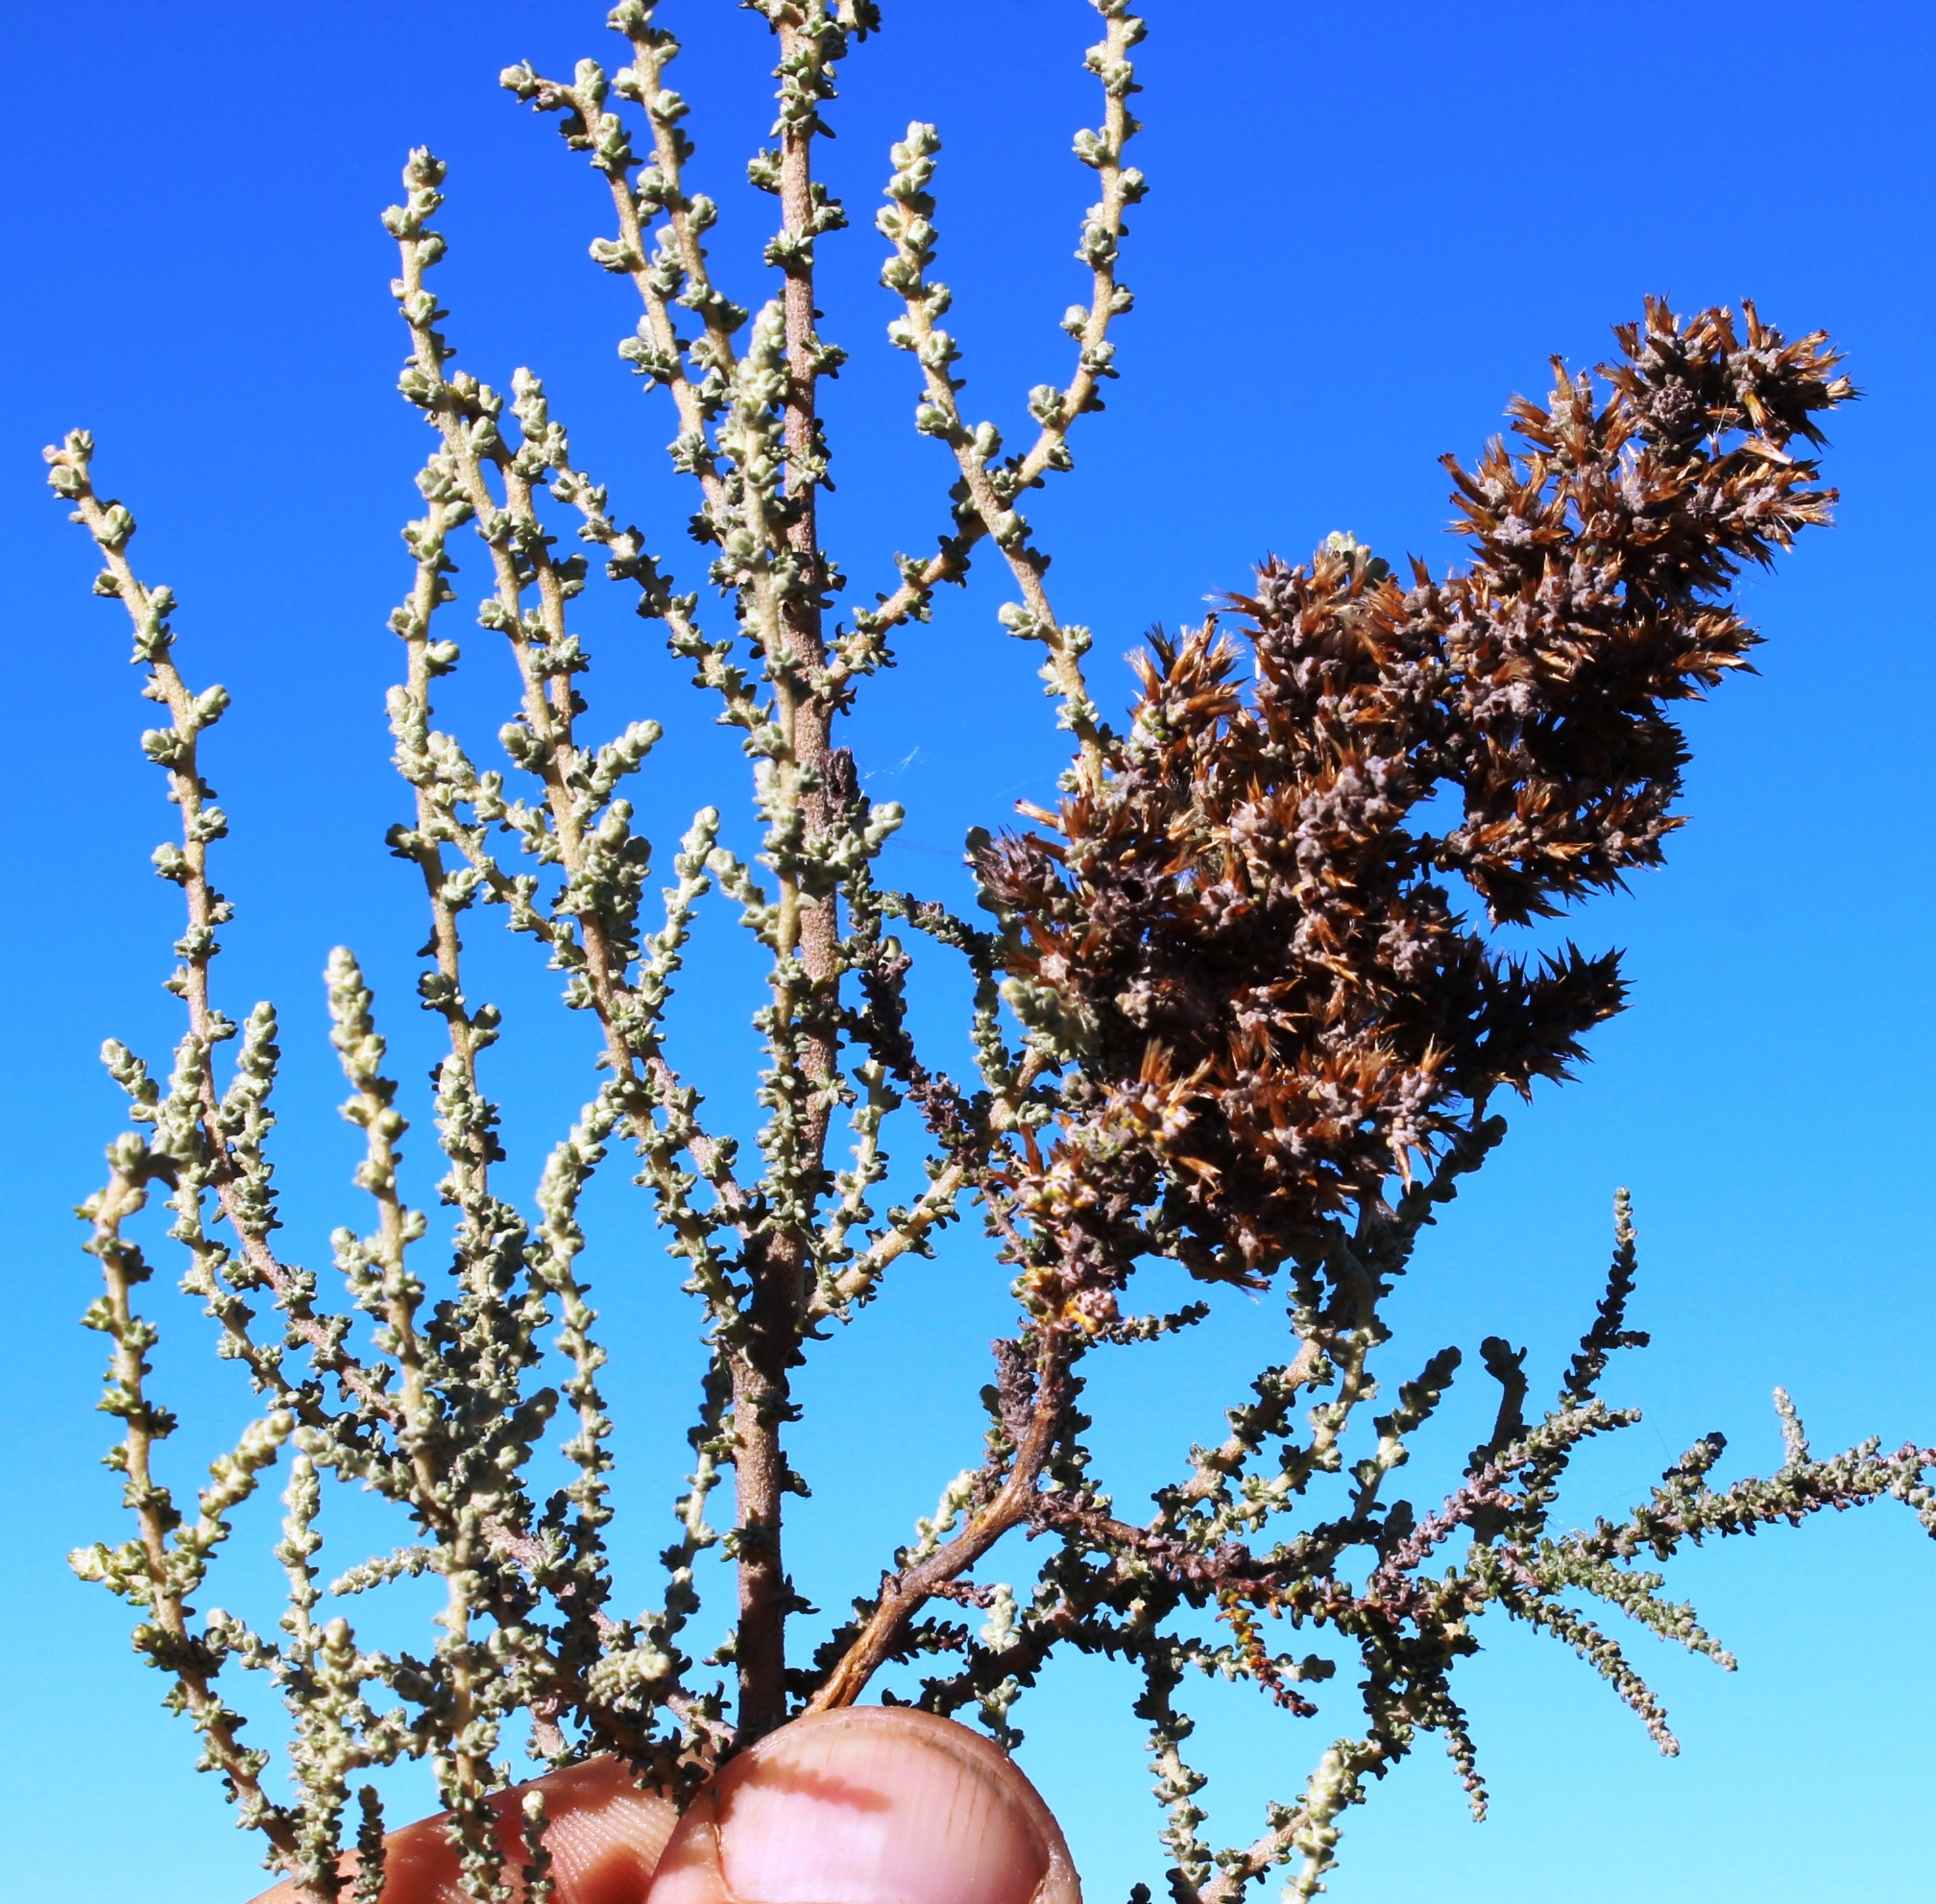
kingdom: Plantae
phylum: Tracheophyta
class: Magnoliopsida
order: Asterales
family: Asteraceae
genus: Seriphium
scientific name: Seriphium plumosum
